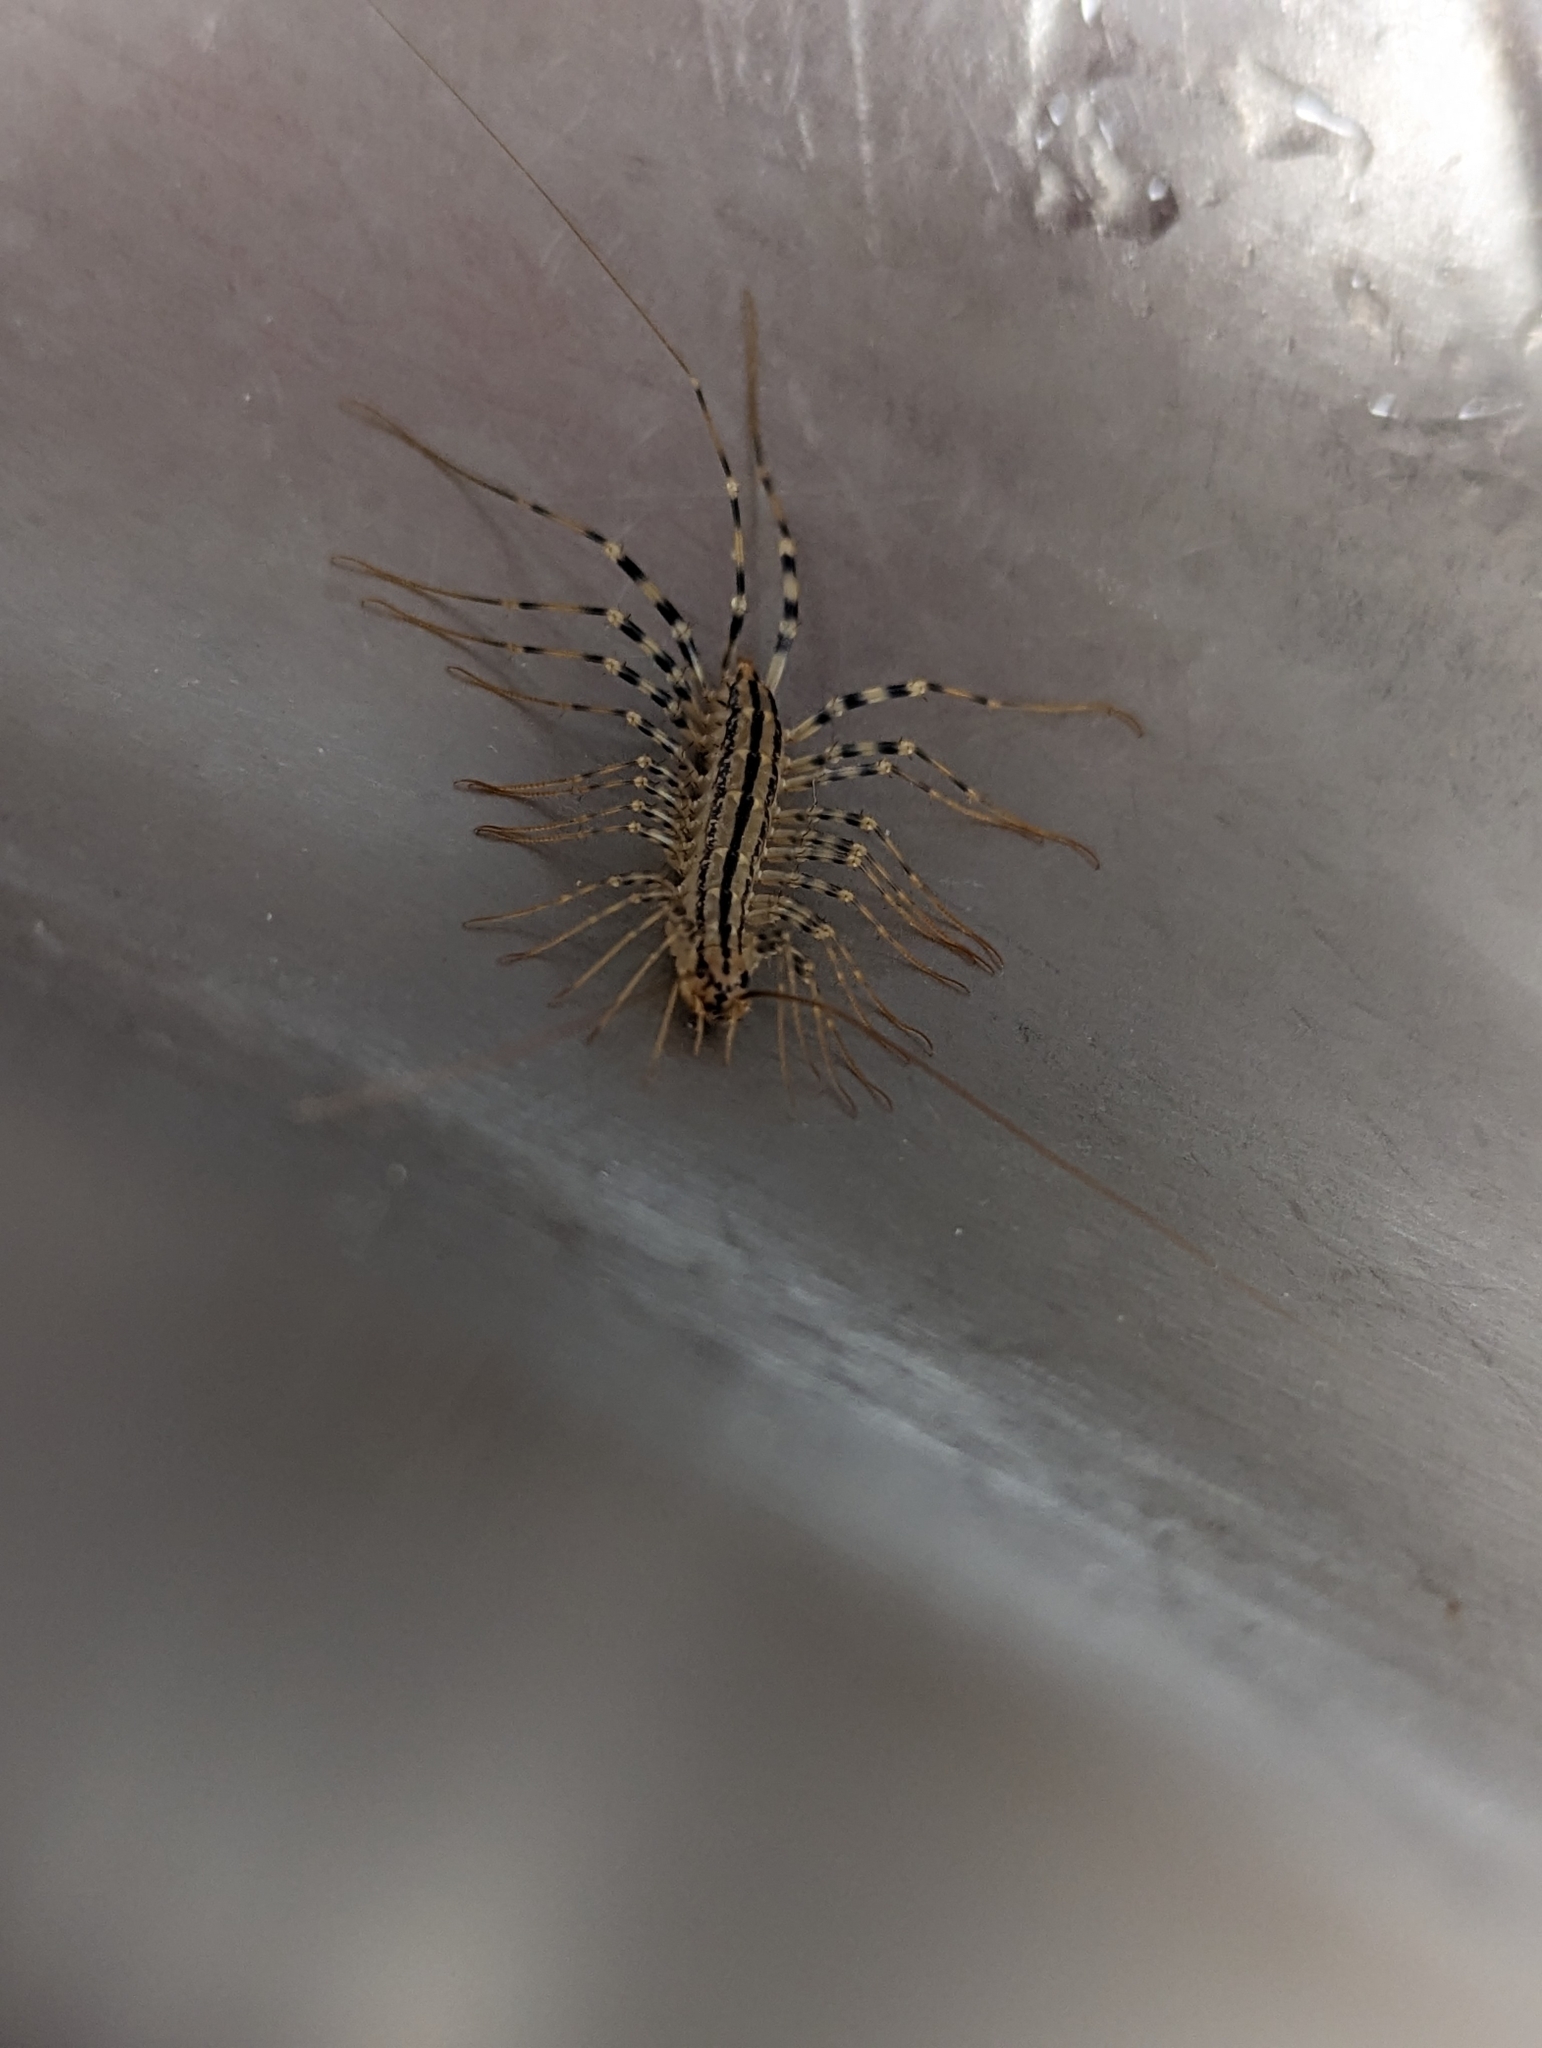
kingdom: Animalia
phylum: Arthropoda
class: Chilopoda
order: Scutigeromorpha
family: Scutigeridae
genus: Scutigera
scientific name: Scutigera coleoptrata
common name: House centipede
